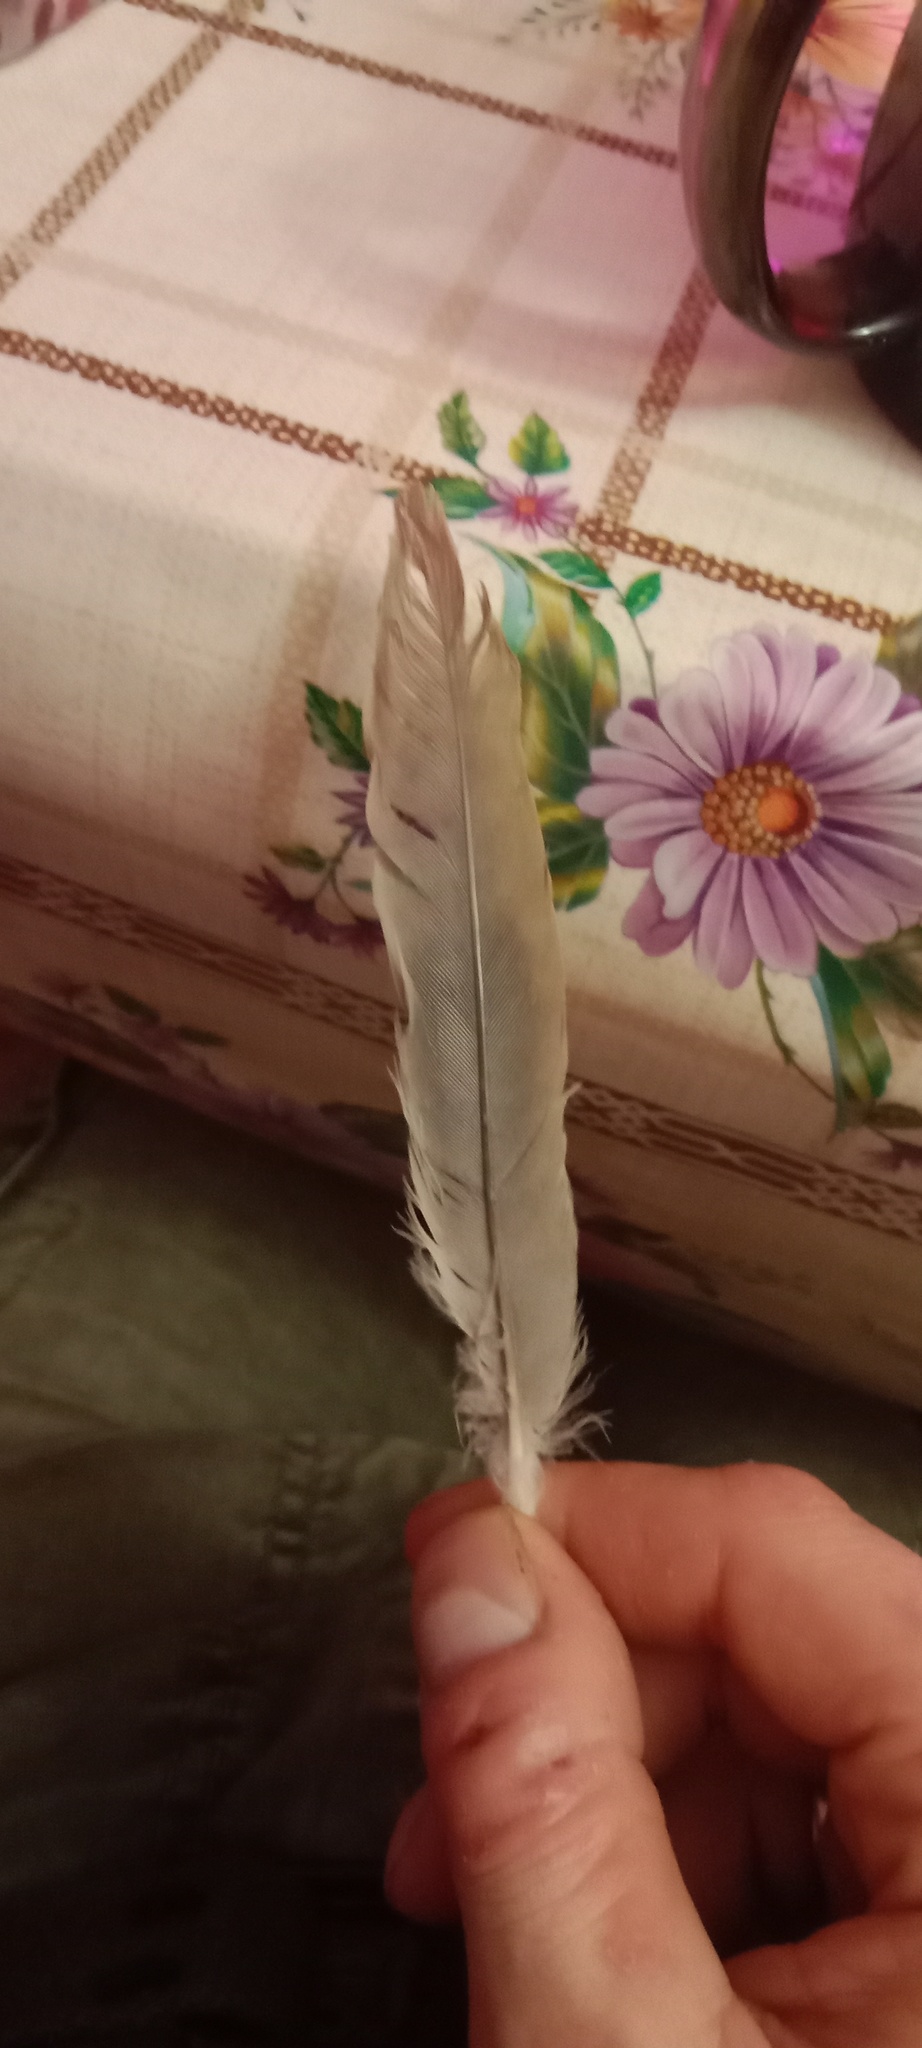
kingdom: Animalia
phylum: Chordata
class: Aves
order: Columbiformes
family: Columbidae
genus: Streptopelia
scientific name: Streptopelia decaocto
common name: Eurasian collared dove
